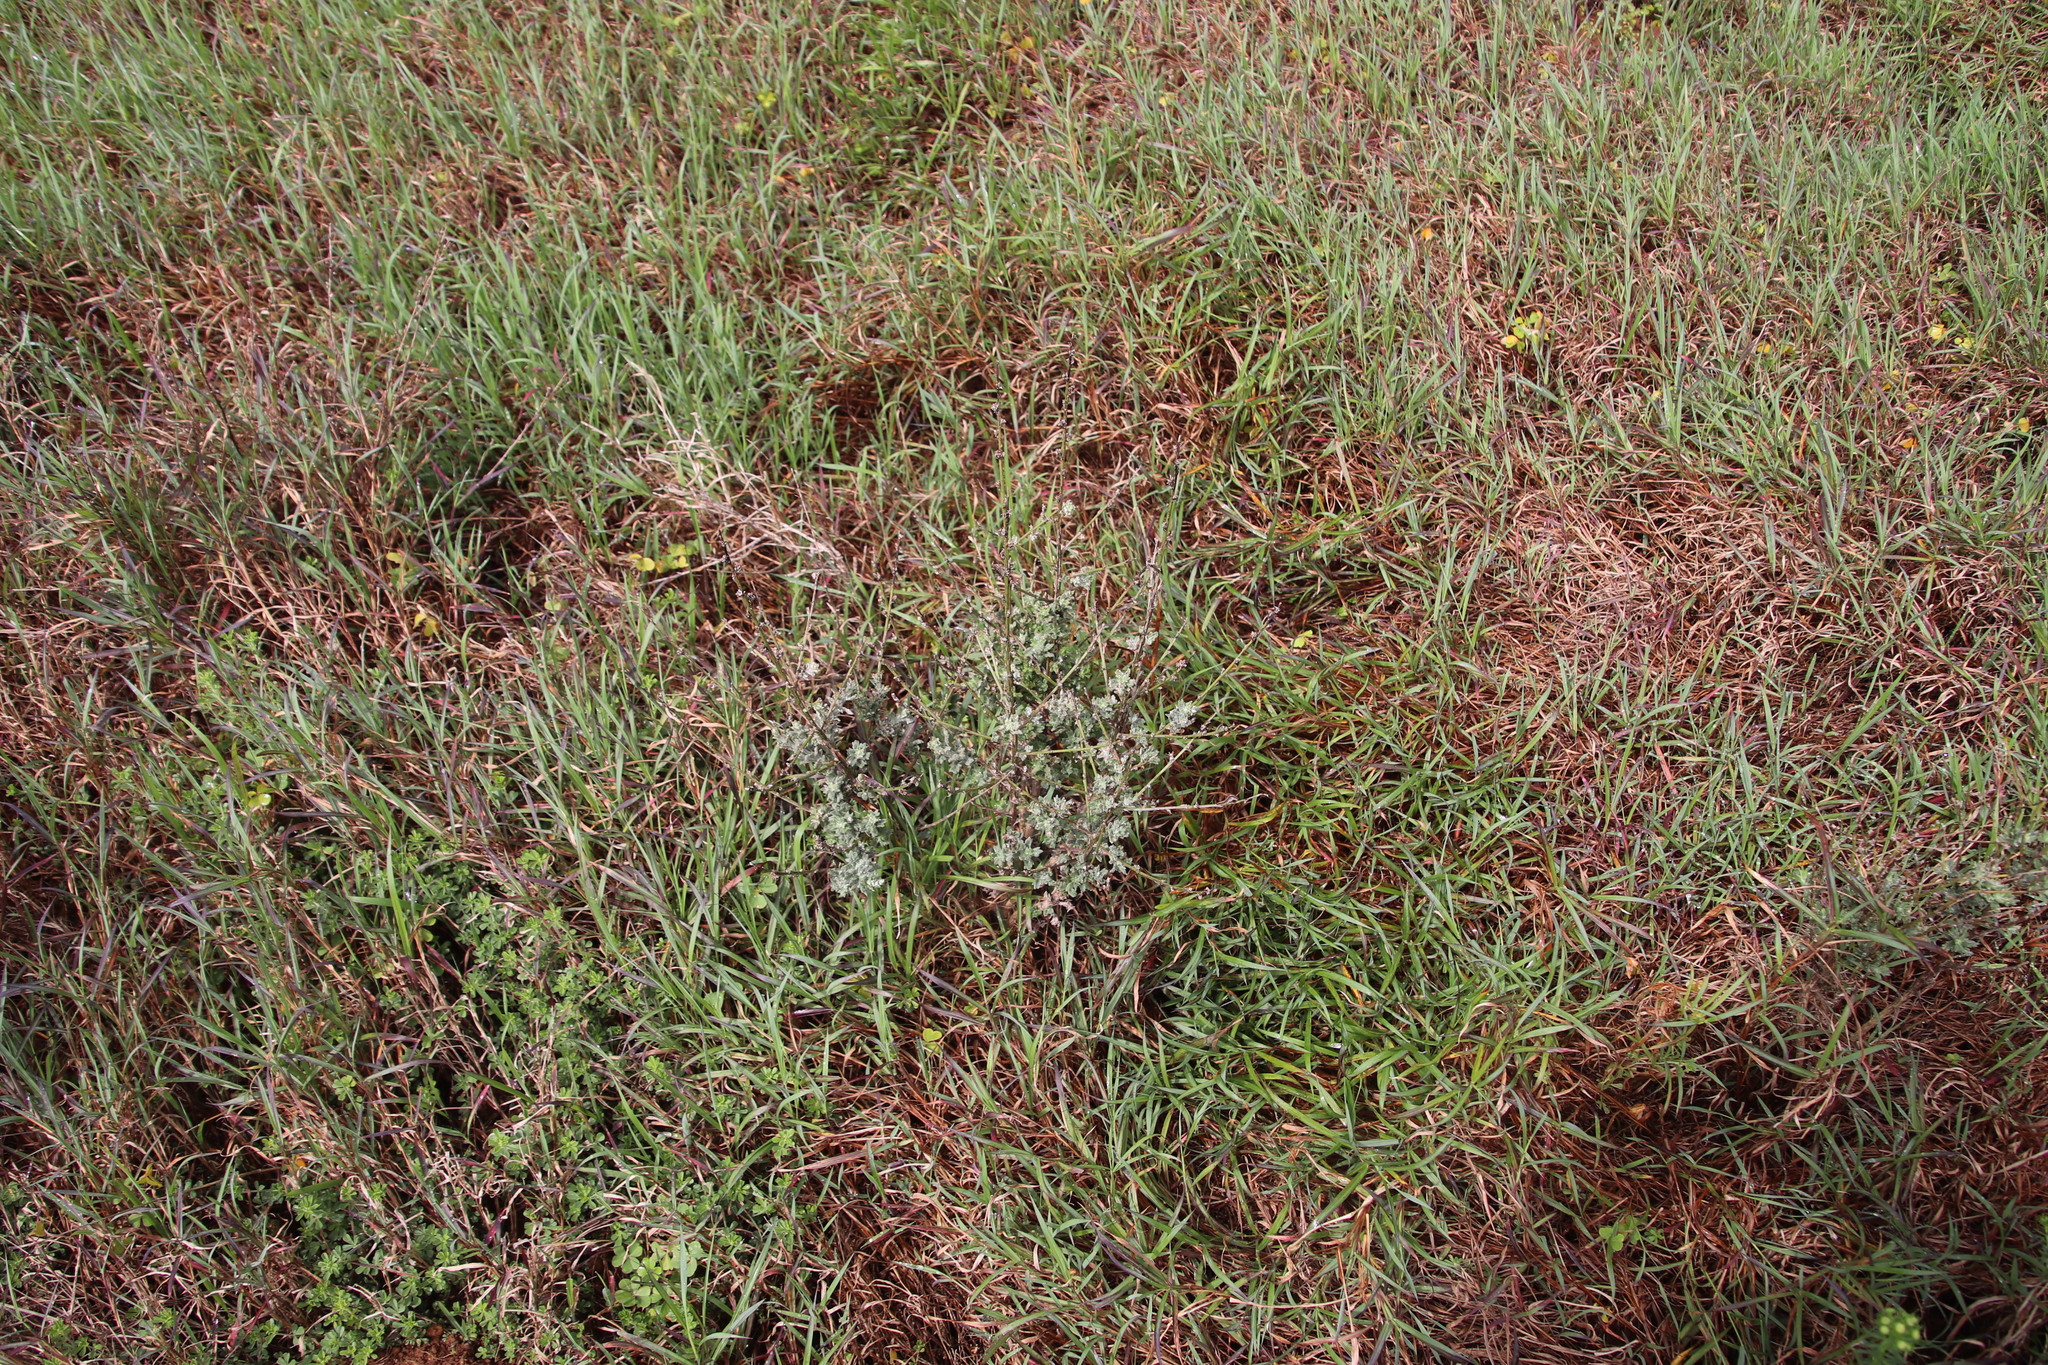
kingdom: Plantae
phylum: Tracheophyta
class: Magnoliopsida
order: Asterales
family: Asteraceae
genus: Senecio
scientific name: Senecio pubigerus
